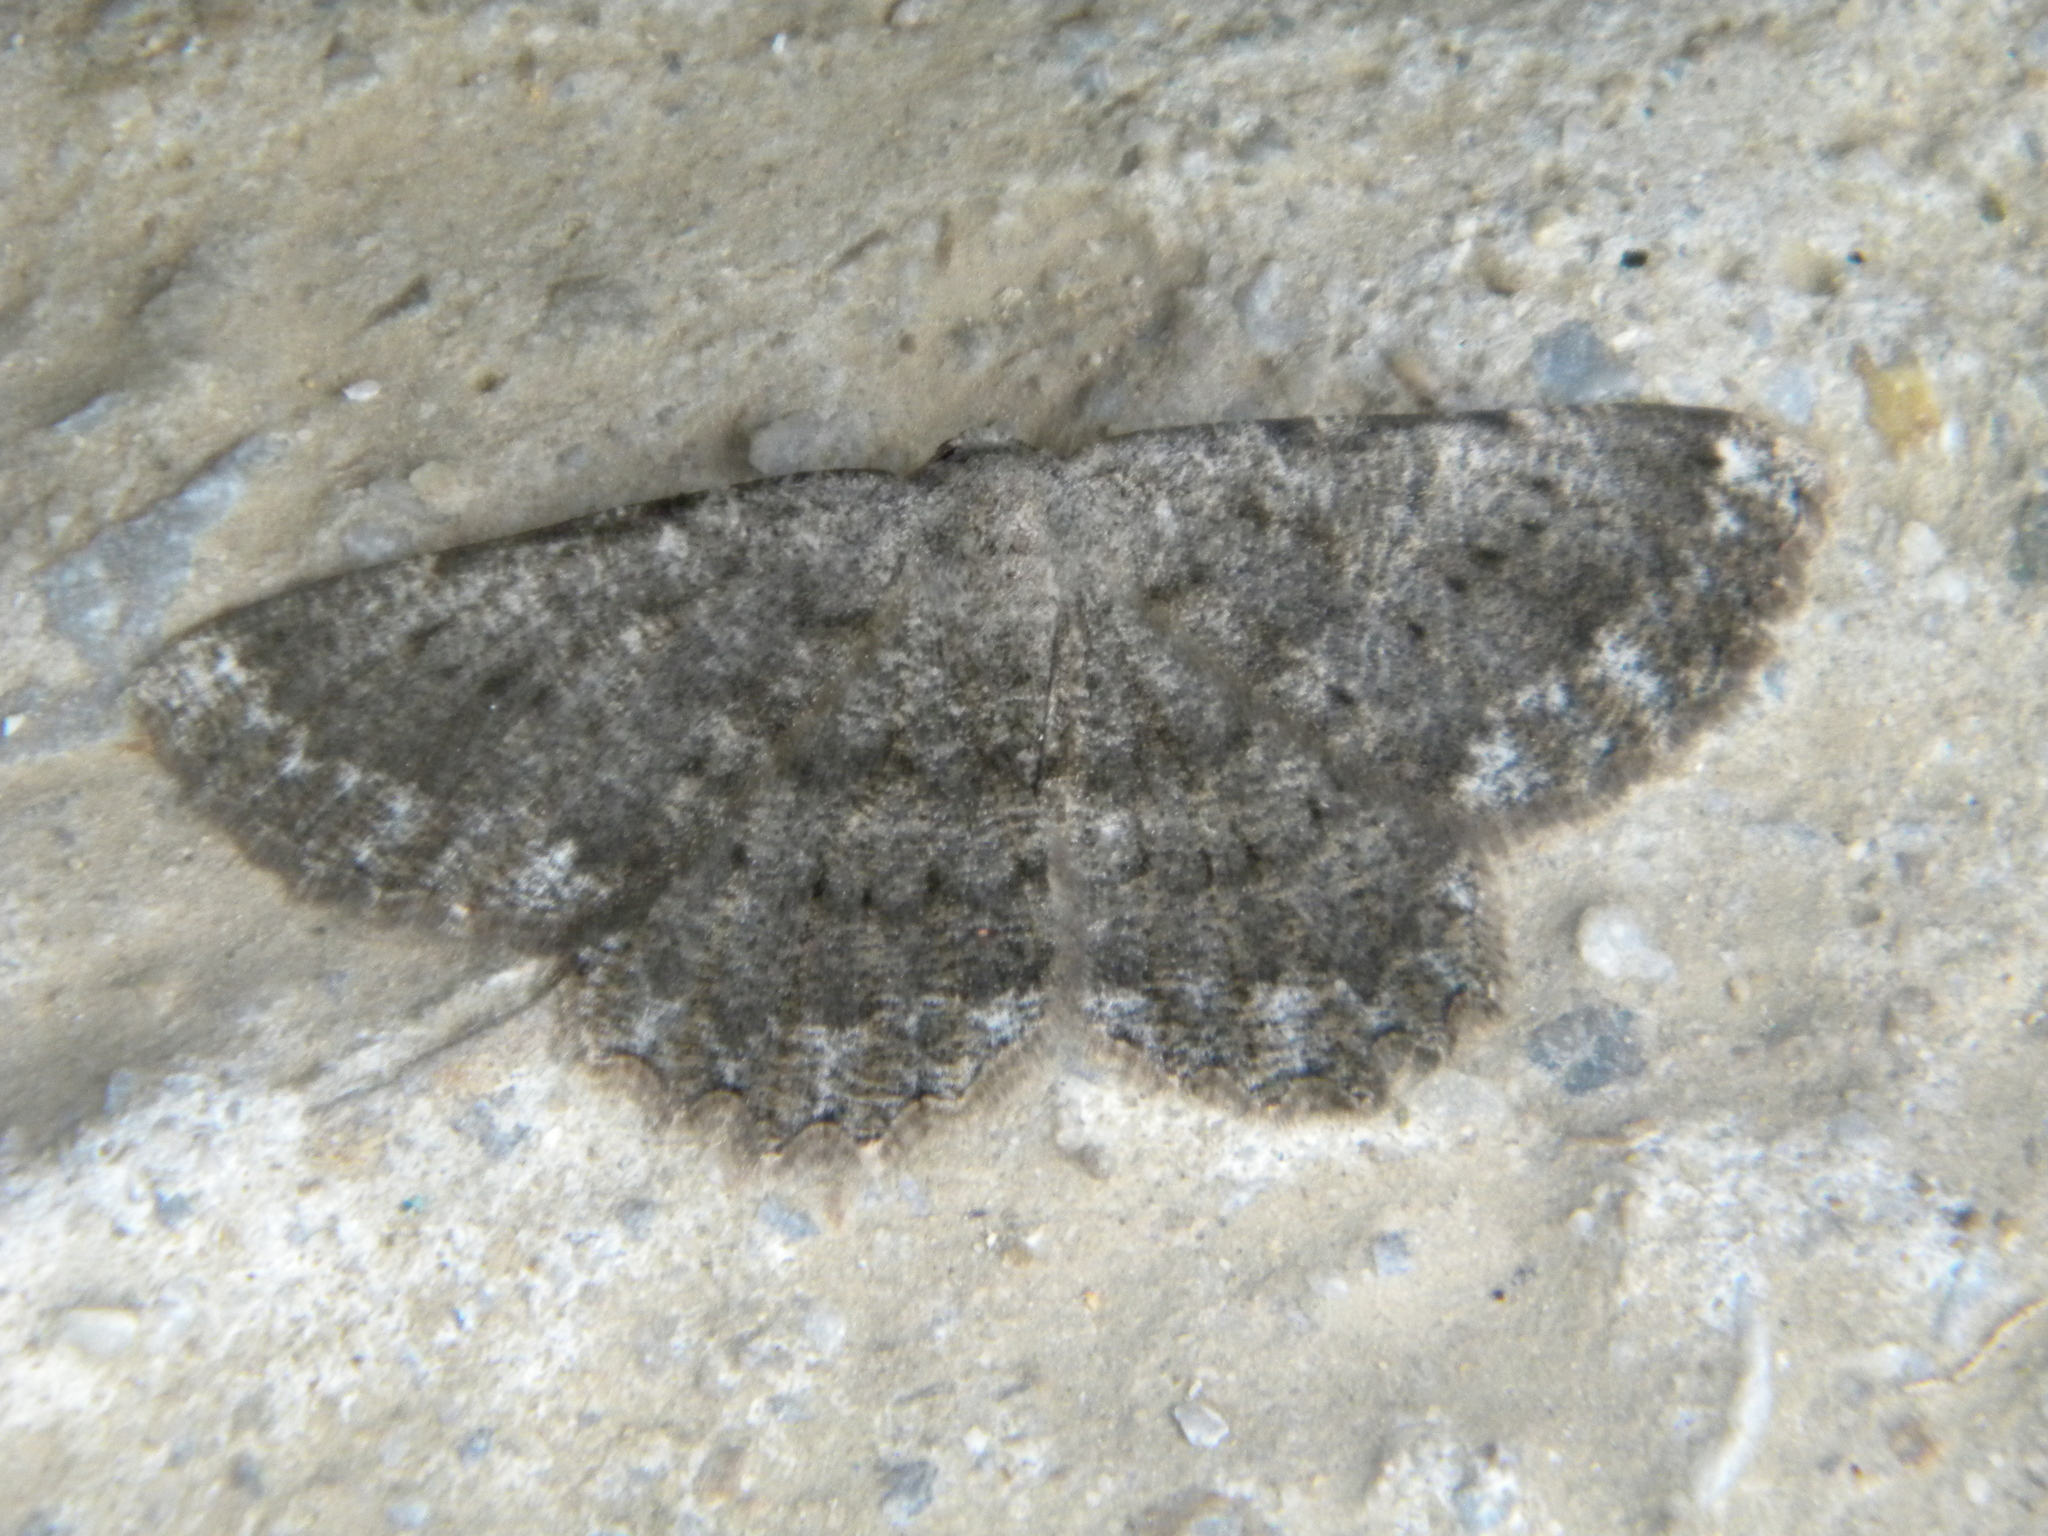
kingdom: Animalia
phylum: Arthropoda
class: Insecta
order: Lepidoptera
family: Geometridae
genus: Gnophos
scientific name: Gnophos sartata
